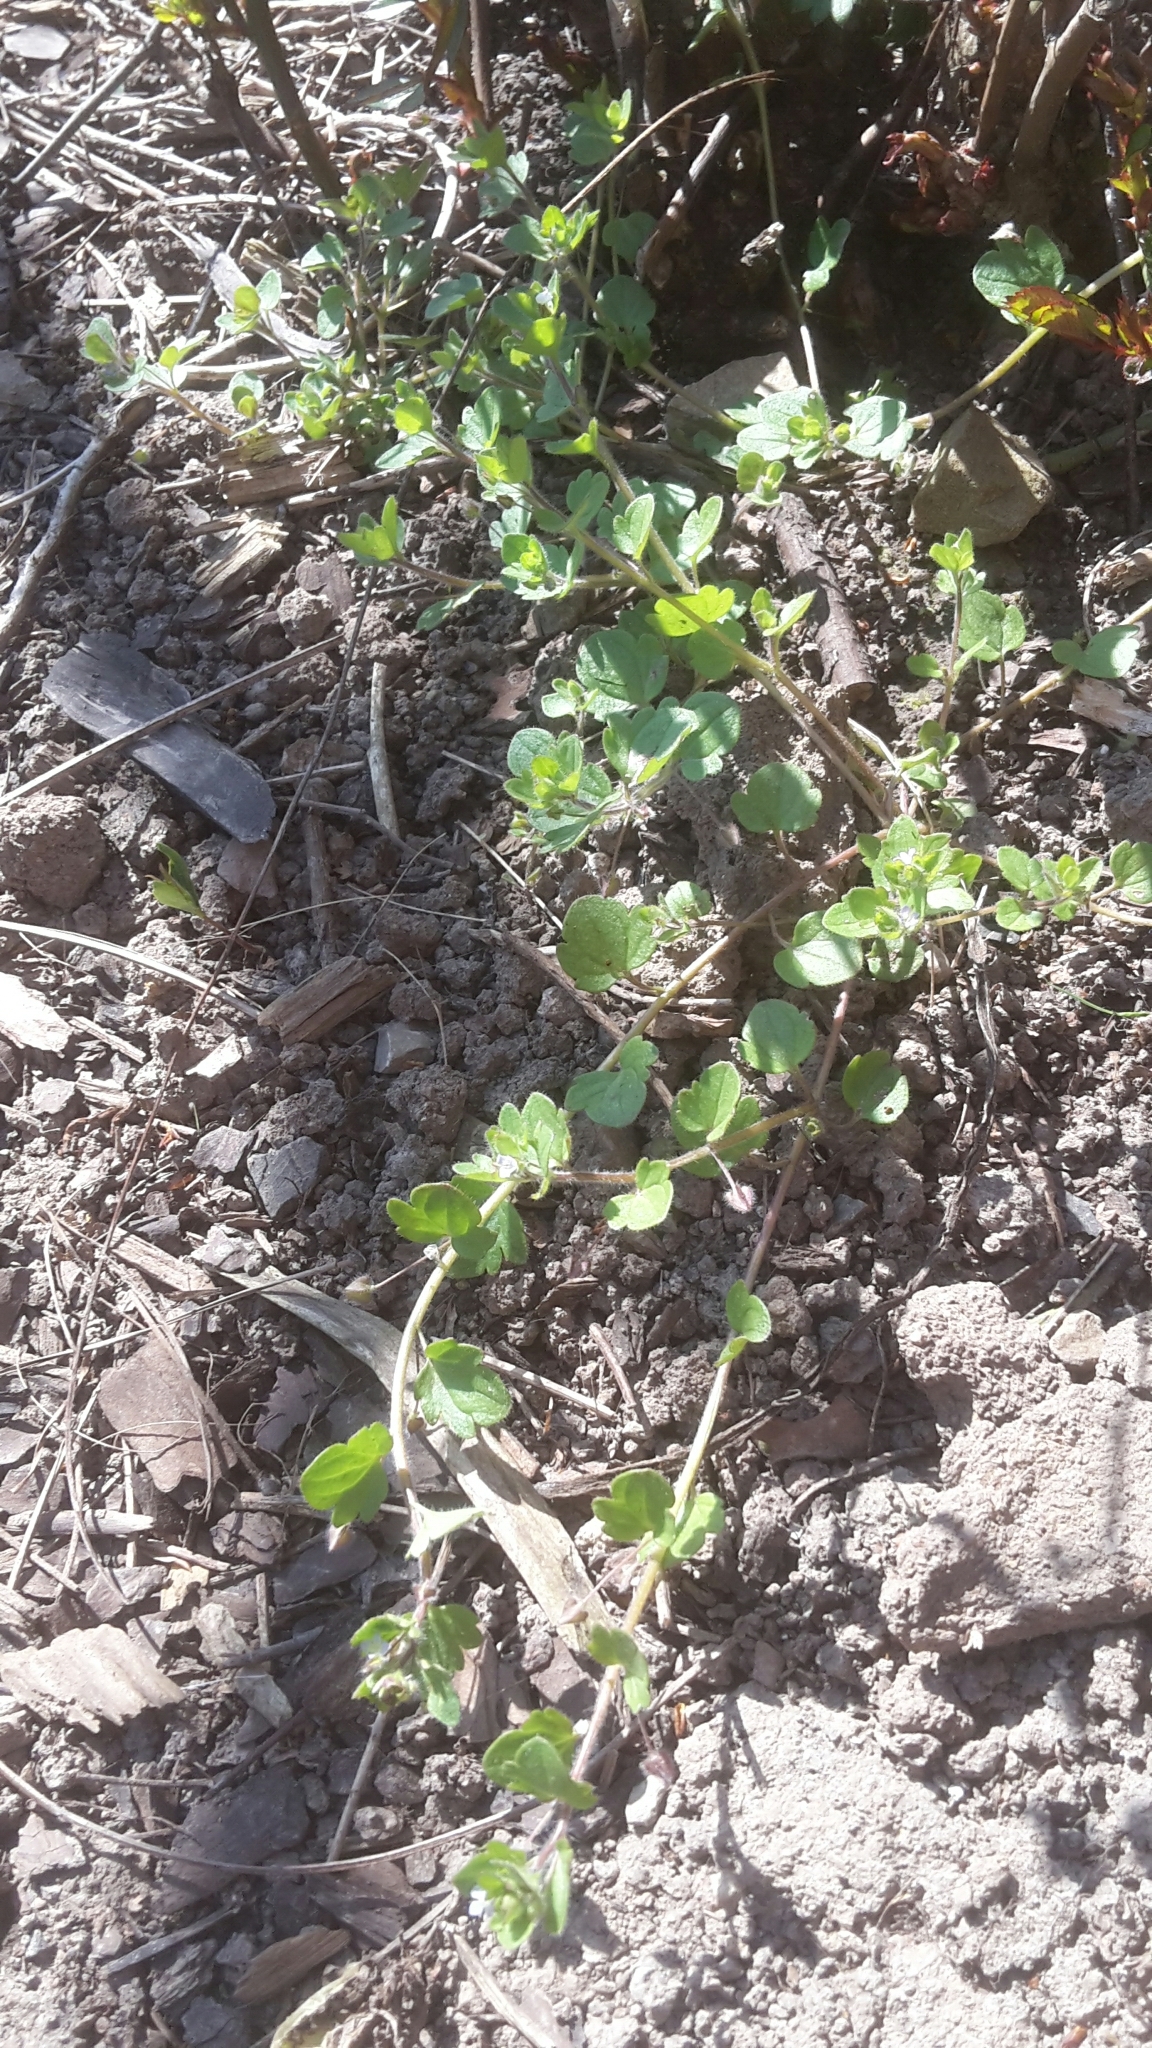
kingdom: Plantae
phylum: Tracheophyta
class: Magnoliopsida
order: Lamiales
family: Plantaginaceae
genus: Veronica
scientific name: Veronica sublobata
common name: False ivy-leaved speedwell
